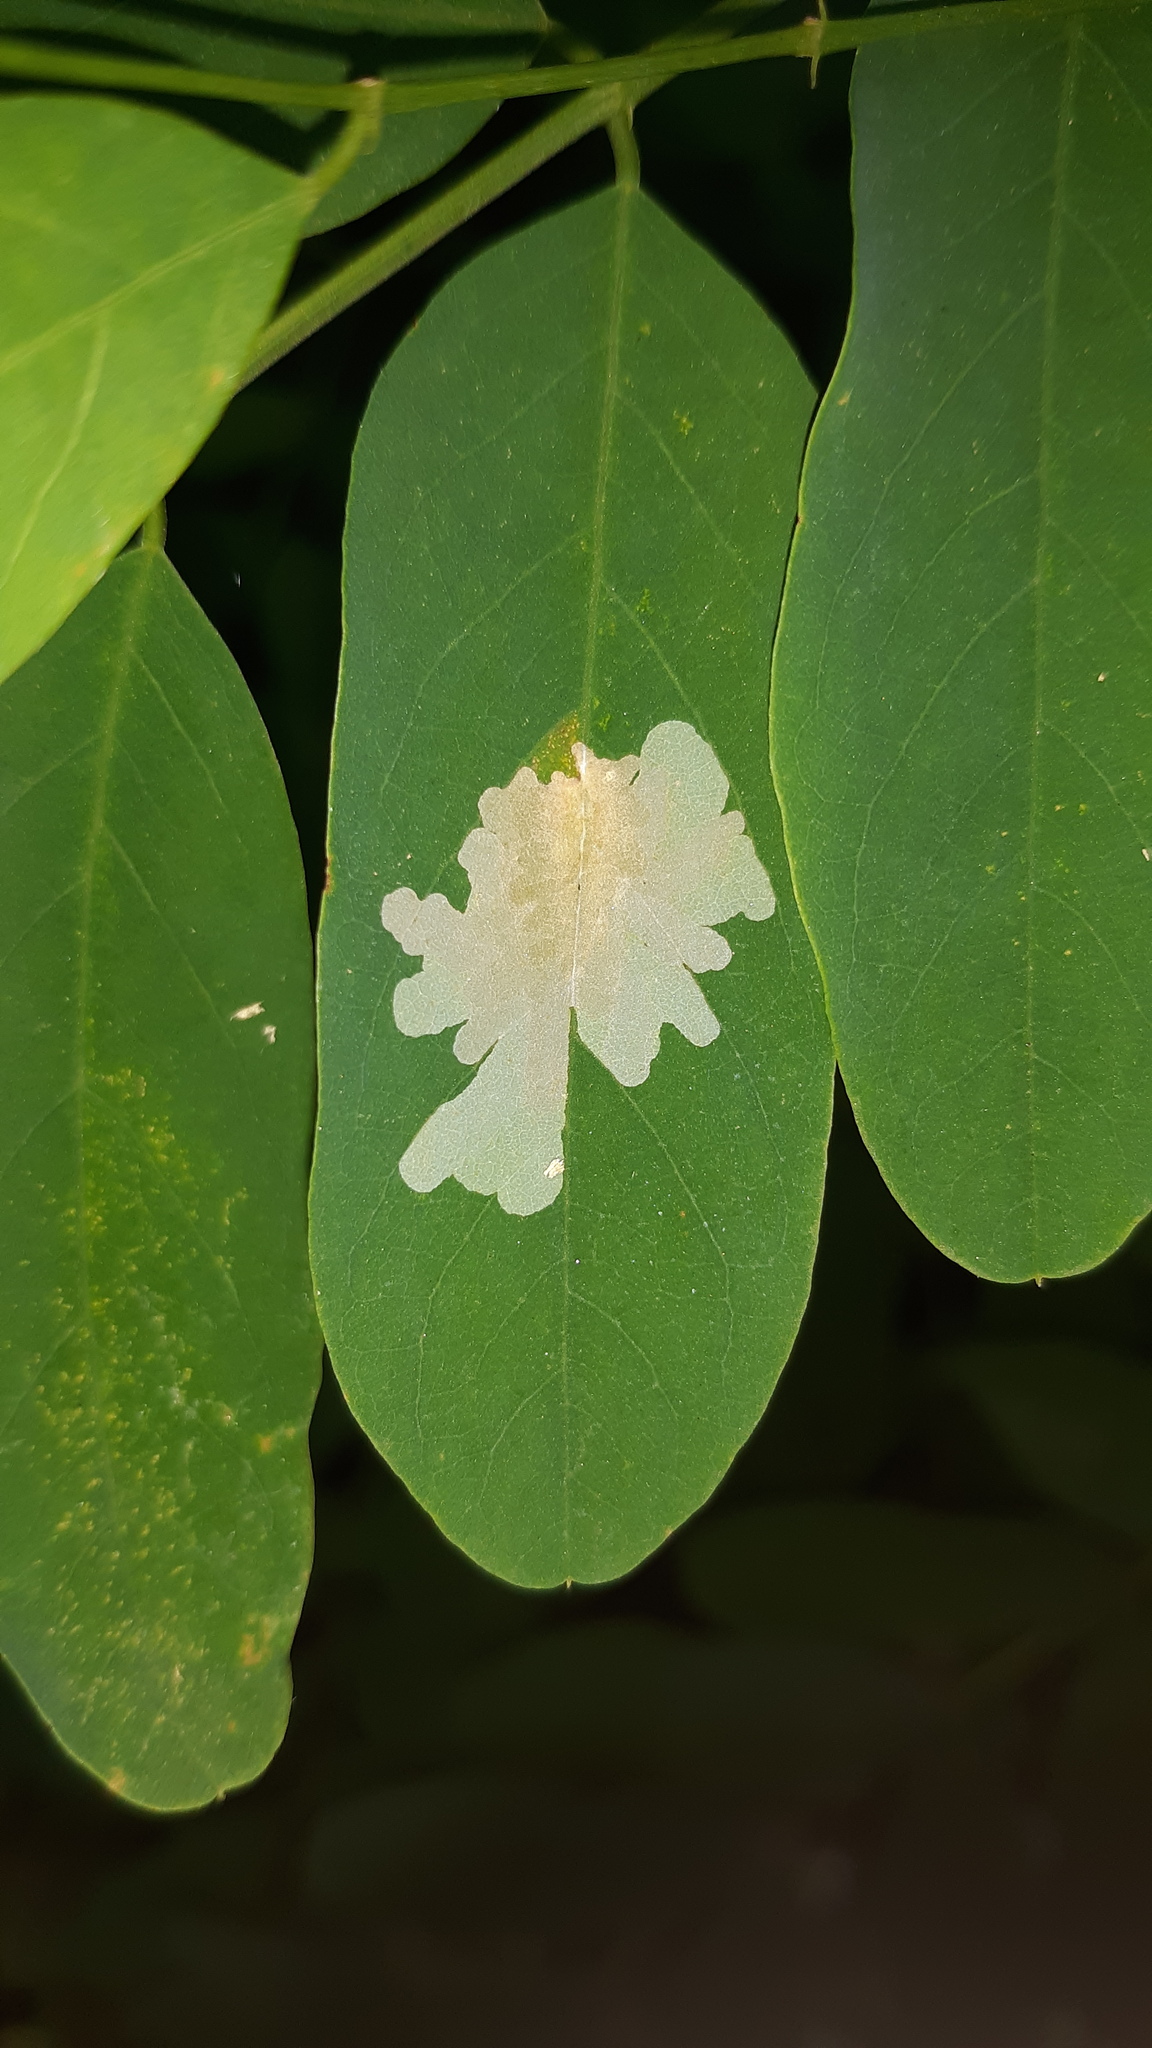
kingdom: Animalia
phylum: Arthropoda
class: Insecta
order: Lepidoptera
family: Gracillariidae
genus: Parectopa
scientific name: Parectopa robiniella
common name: Locust digitate leafminer
